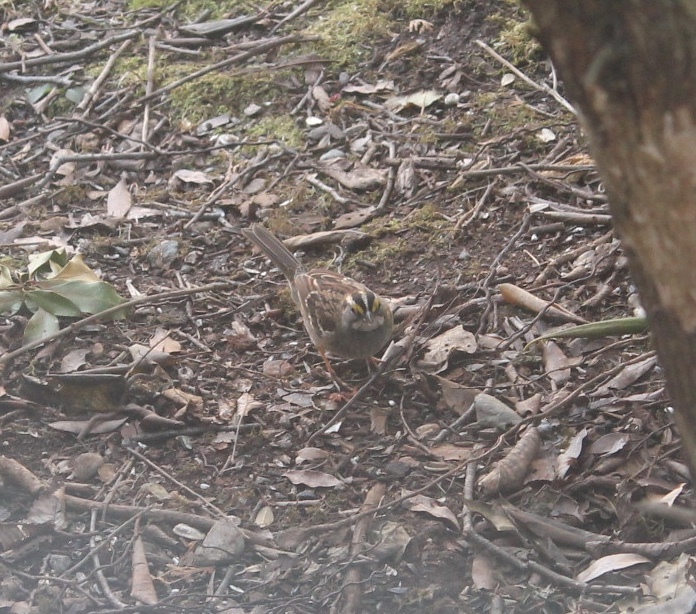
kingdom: Animalia
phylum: Chordata
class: Aves
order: Passeriformes
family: Passerellidae
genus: Zonotrichia
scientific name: Zonotrichia albicollis
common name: White-throated sparrow
